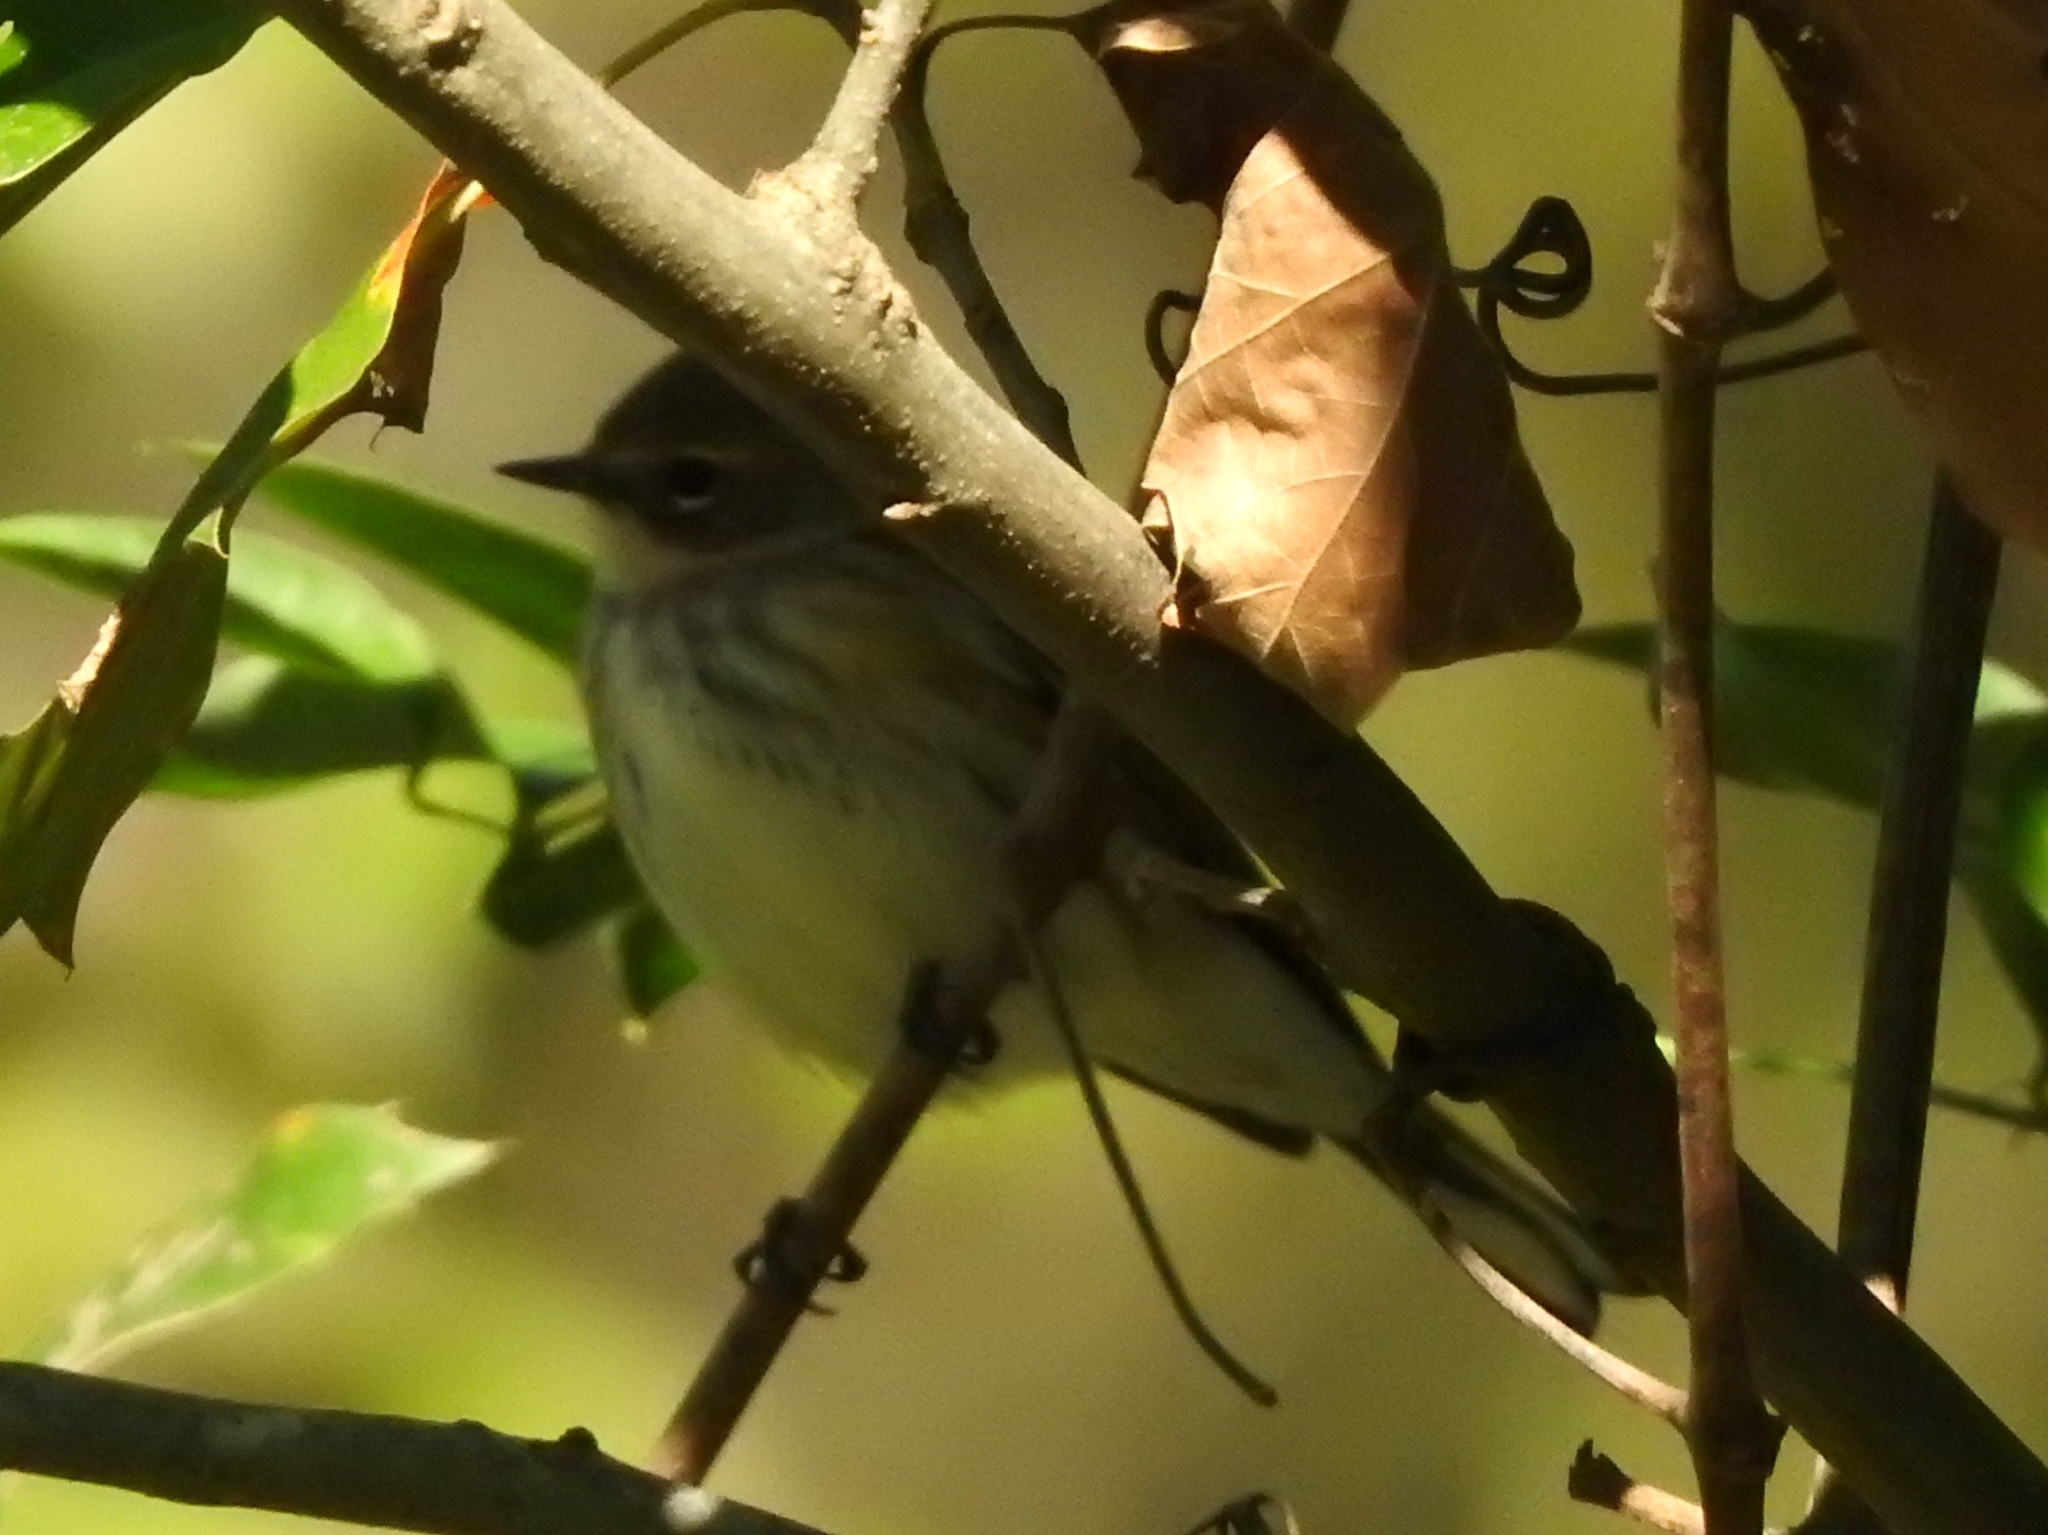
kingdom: Animalia
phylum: Chordata
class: Aves
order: Passeriformes
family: Parulidae
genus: Setophaga
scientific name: Setophaga coronata
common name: Myrtle warbler
